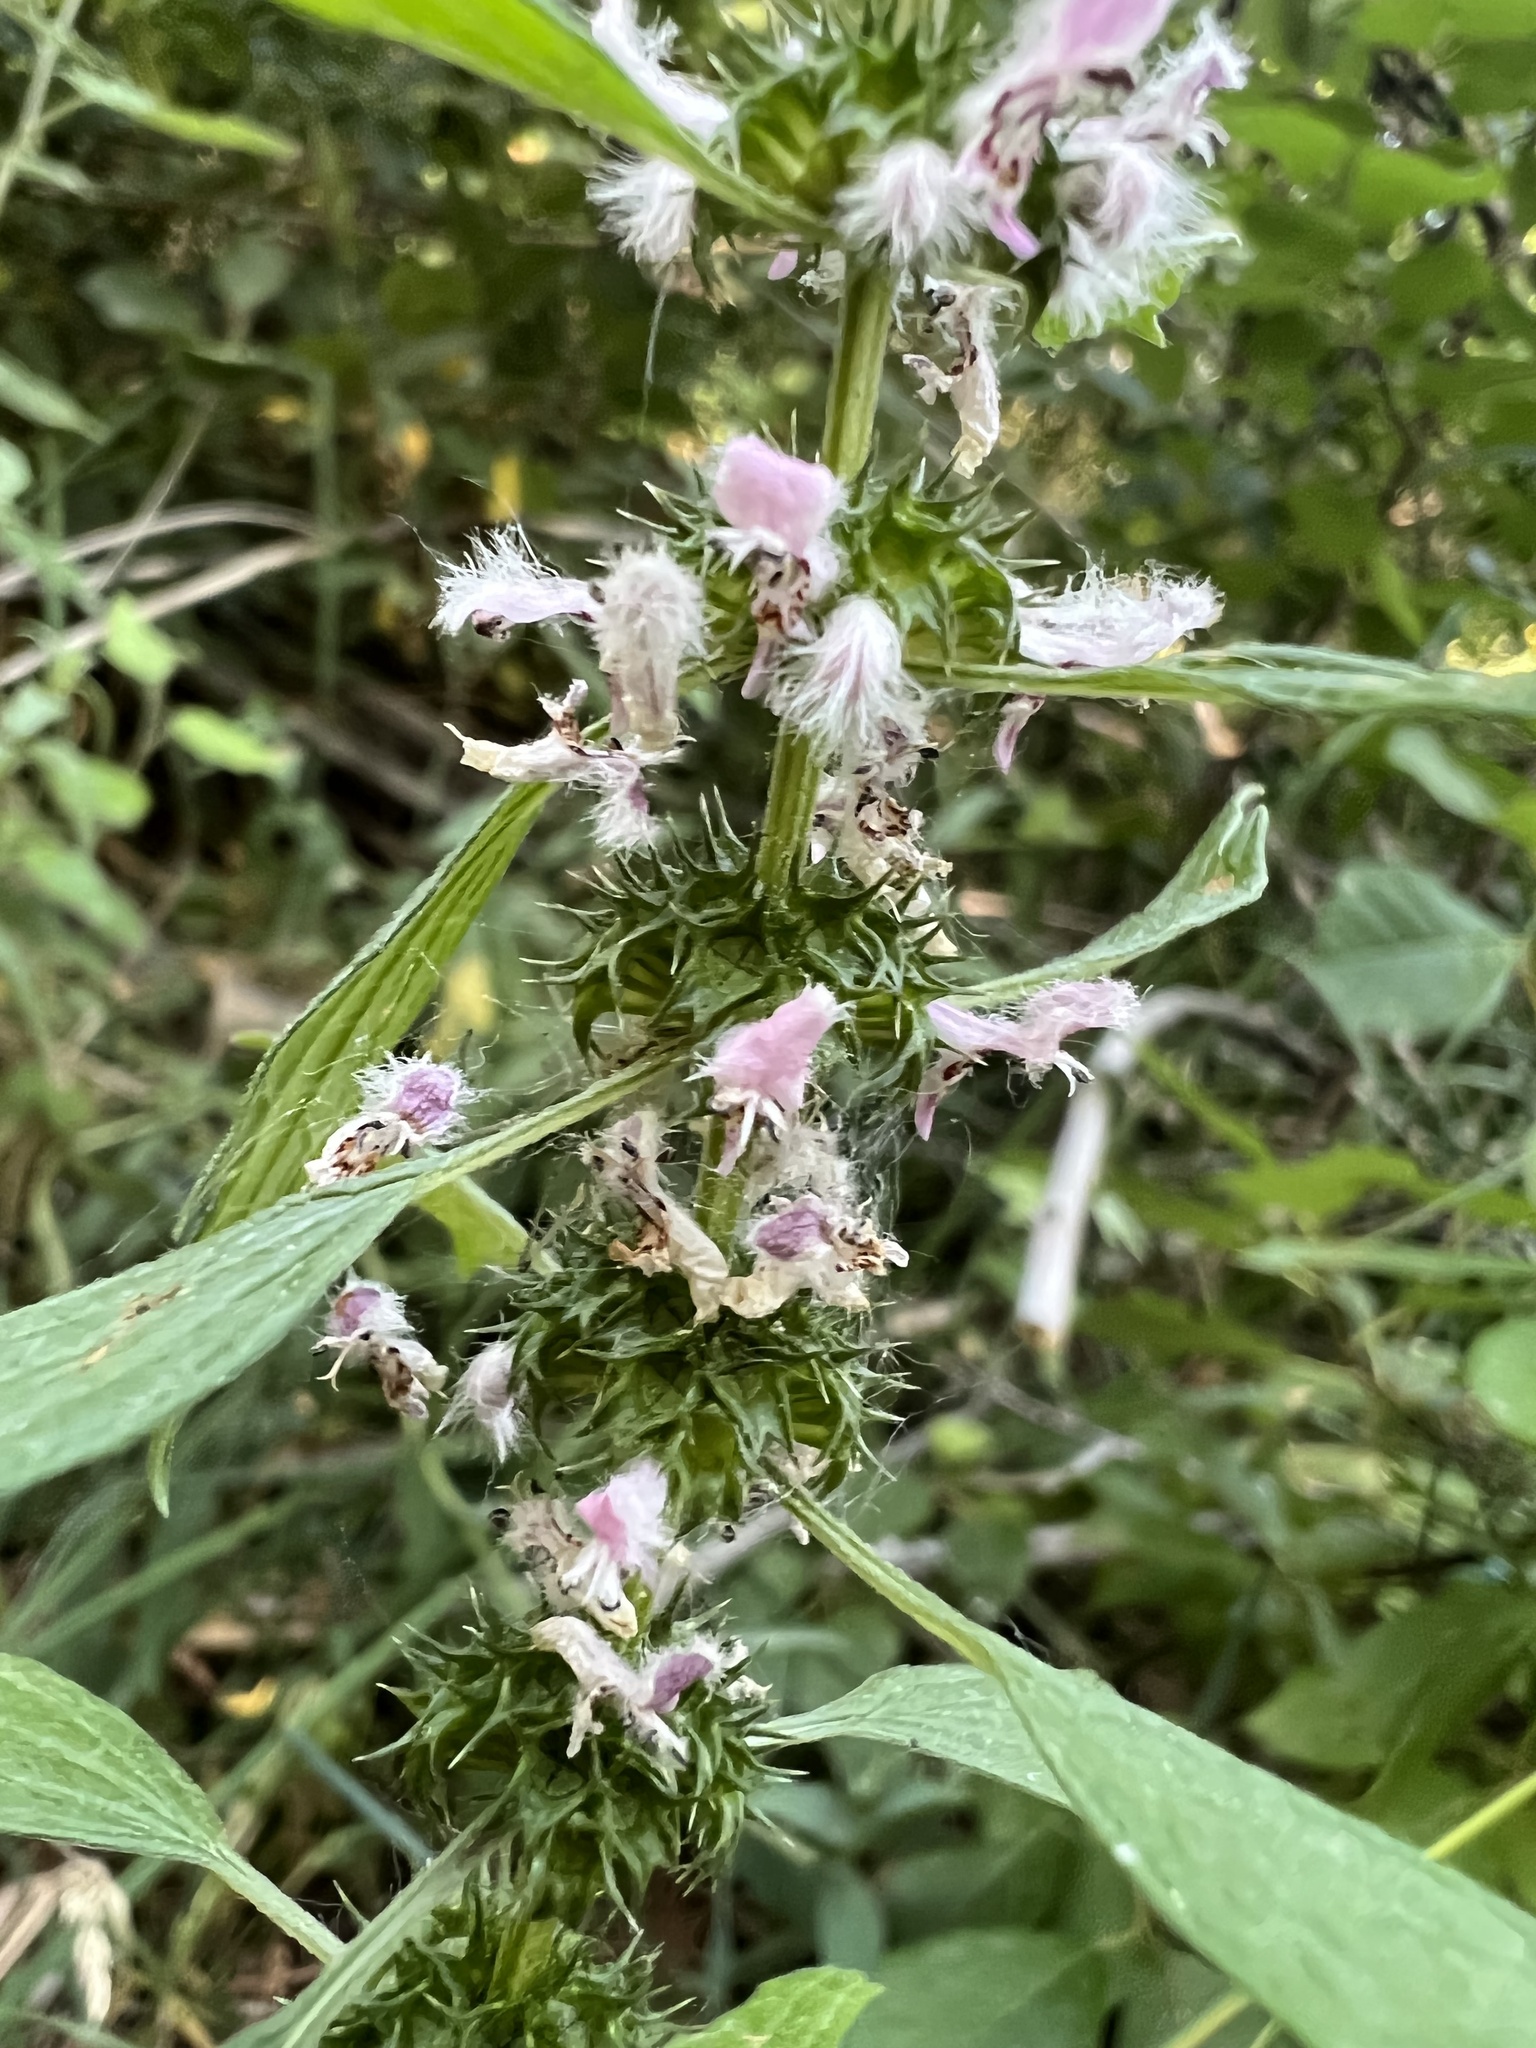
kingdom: Plantae
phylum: Tracheophyta
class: Magnoliopsida
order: Lamiales
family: Lamiaceae
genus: Leonurus
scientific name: Leonurus cardiaca
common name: Motherwort
